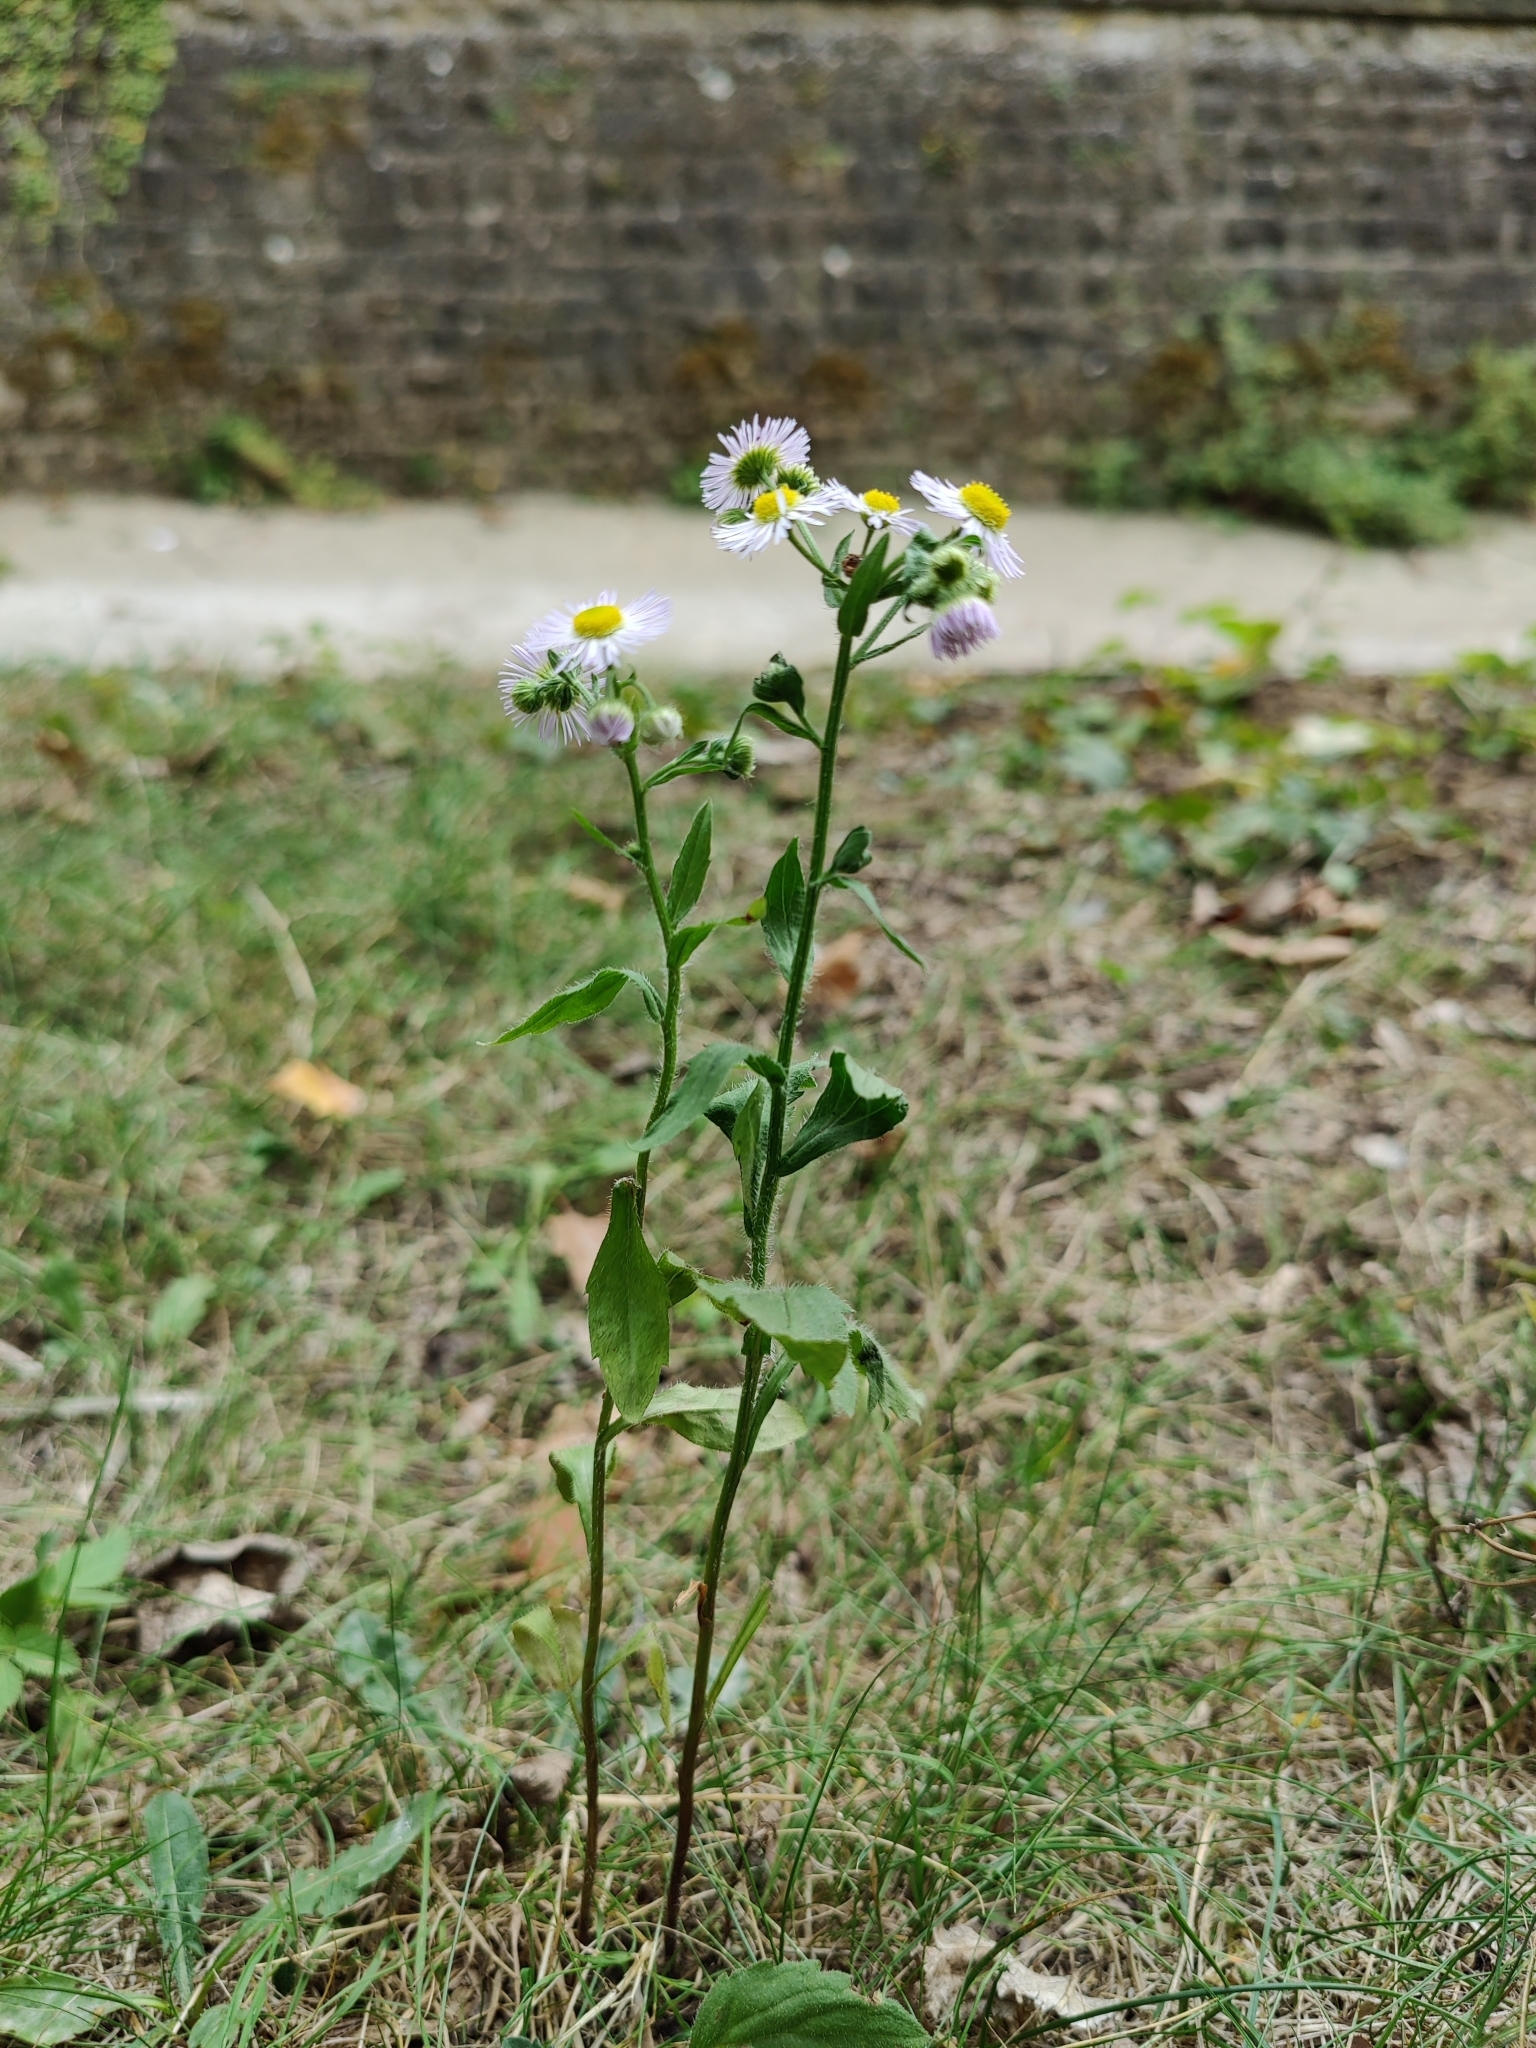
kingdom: Plantae
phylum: Tracheophyta
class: Magnoliopsida
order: Asterales
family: Asteraceae
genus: Erigeron
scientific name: Erigeron annuus
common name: Tall fleabane
